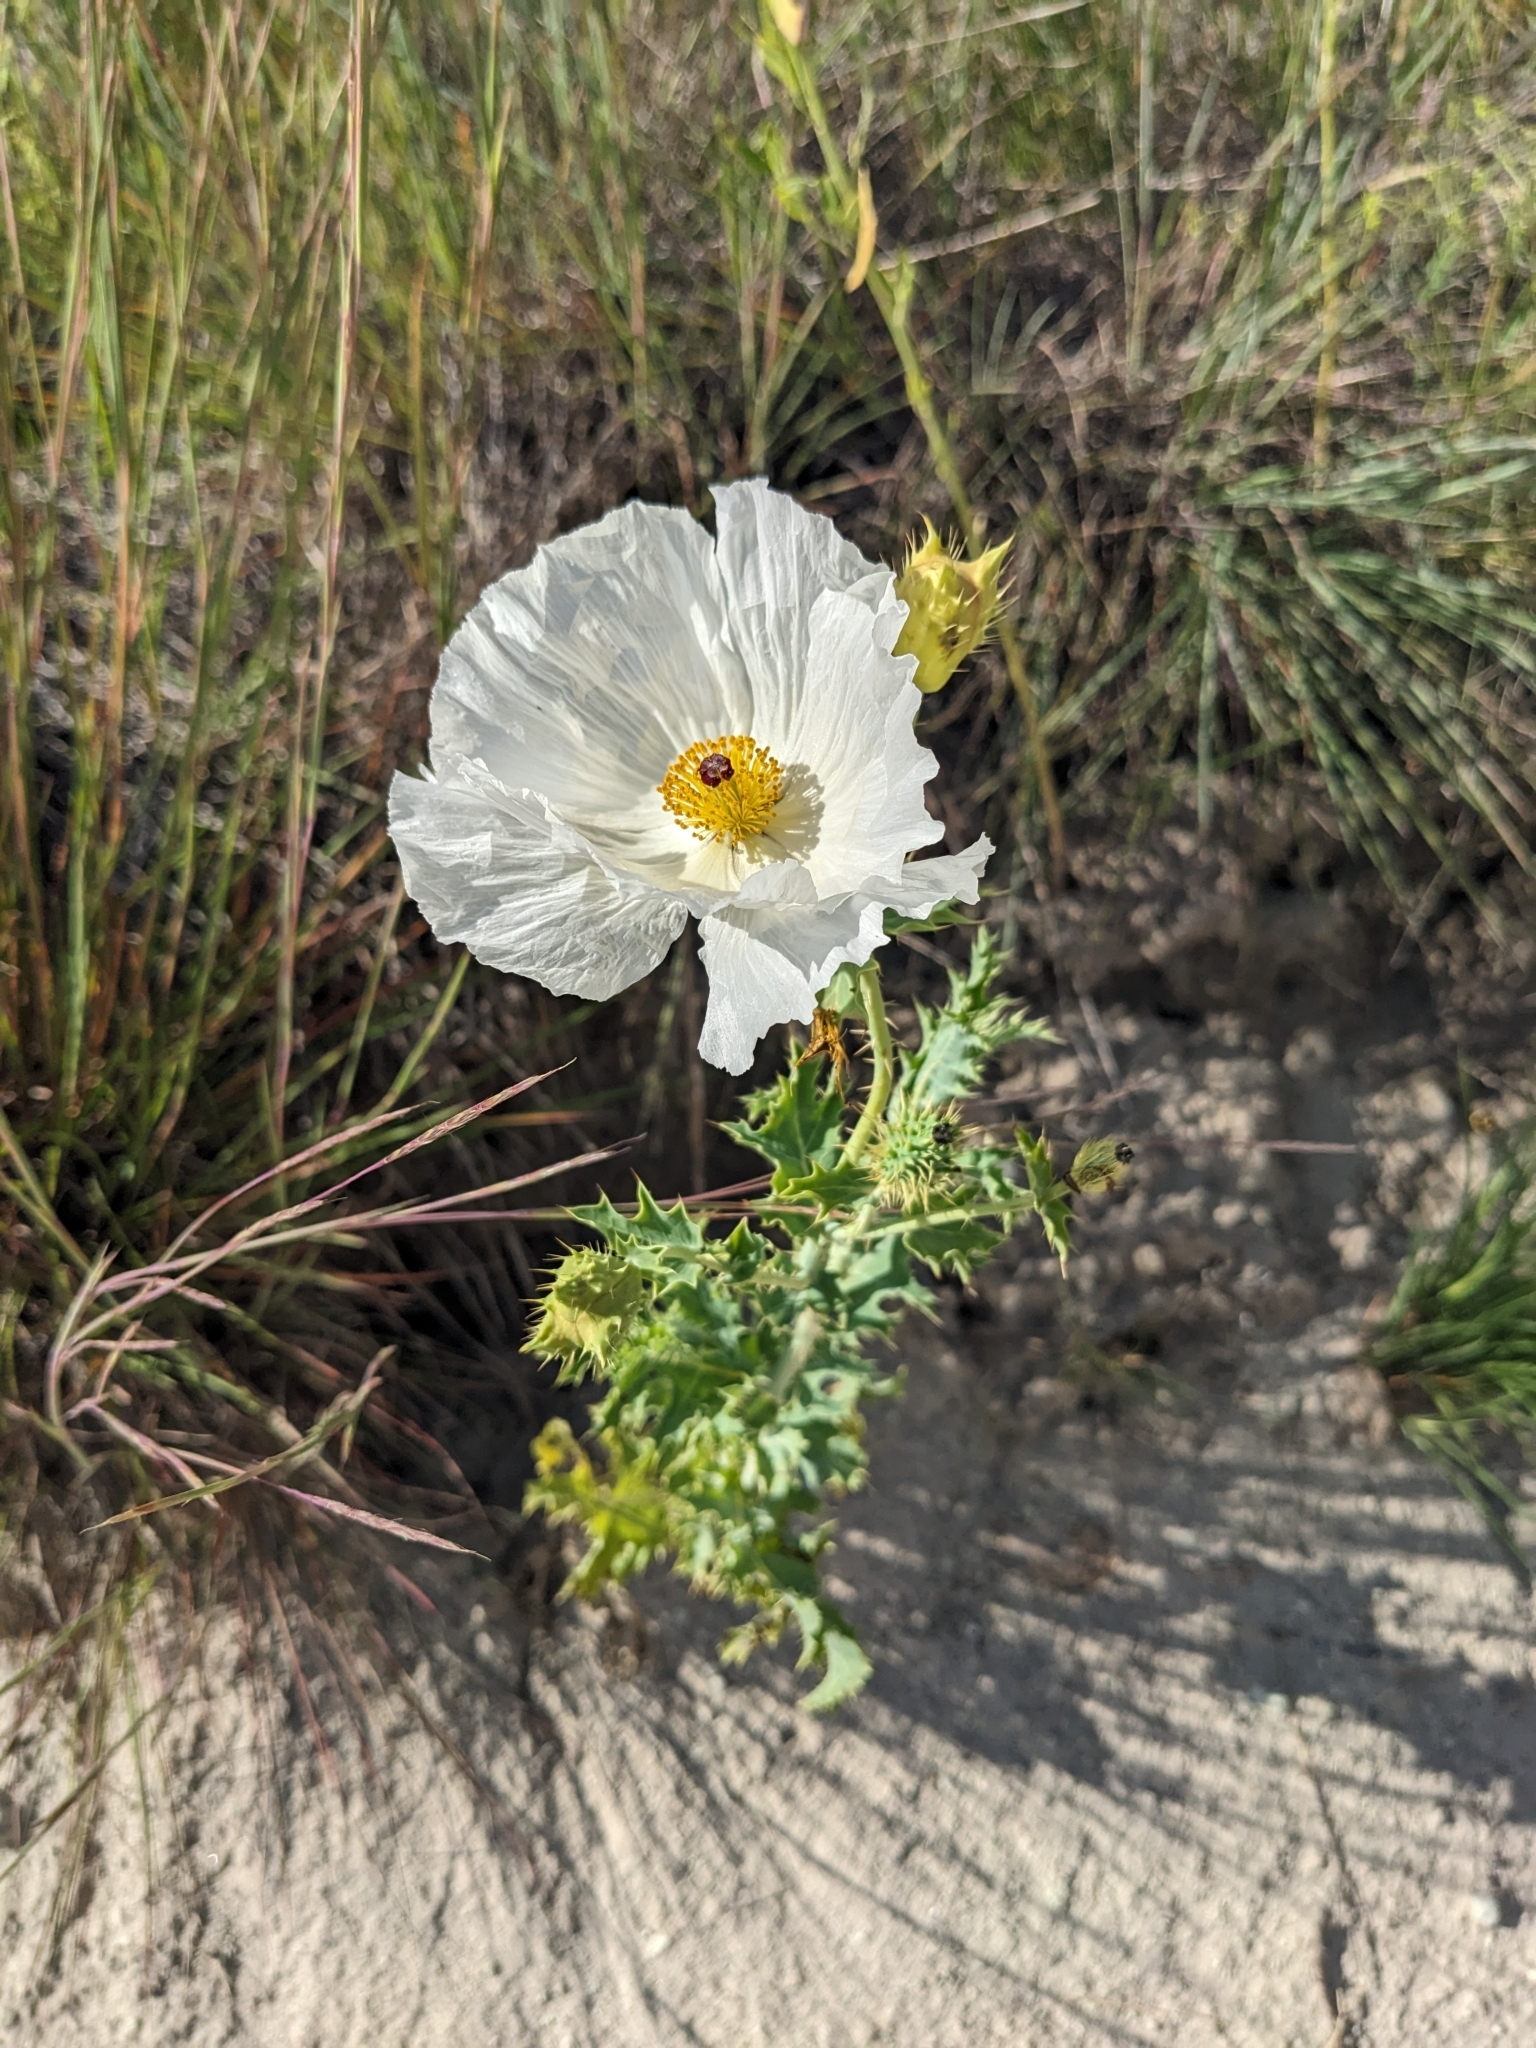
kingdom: Plantae
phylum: Tracheophyta
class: Magnoliopsida
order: Ranunculales
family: Papaveraceae
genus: Argemone
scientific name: Argemone polyanthemos
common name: Plains prickly-poppy
